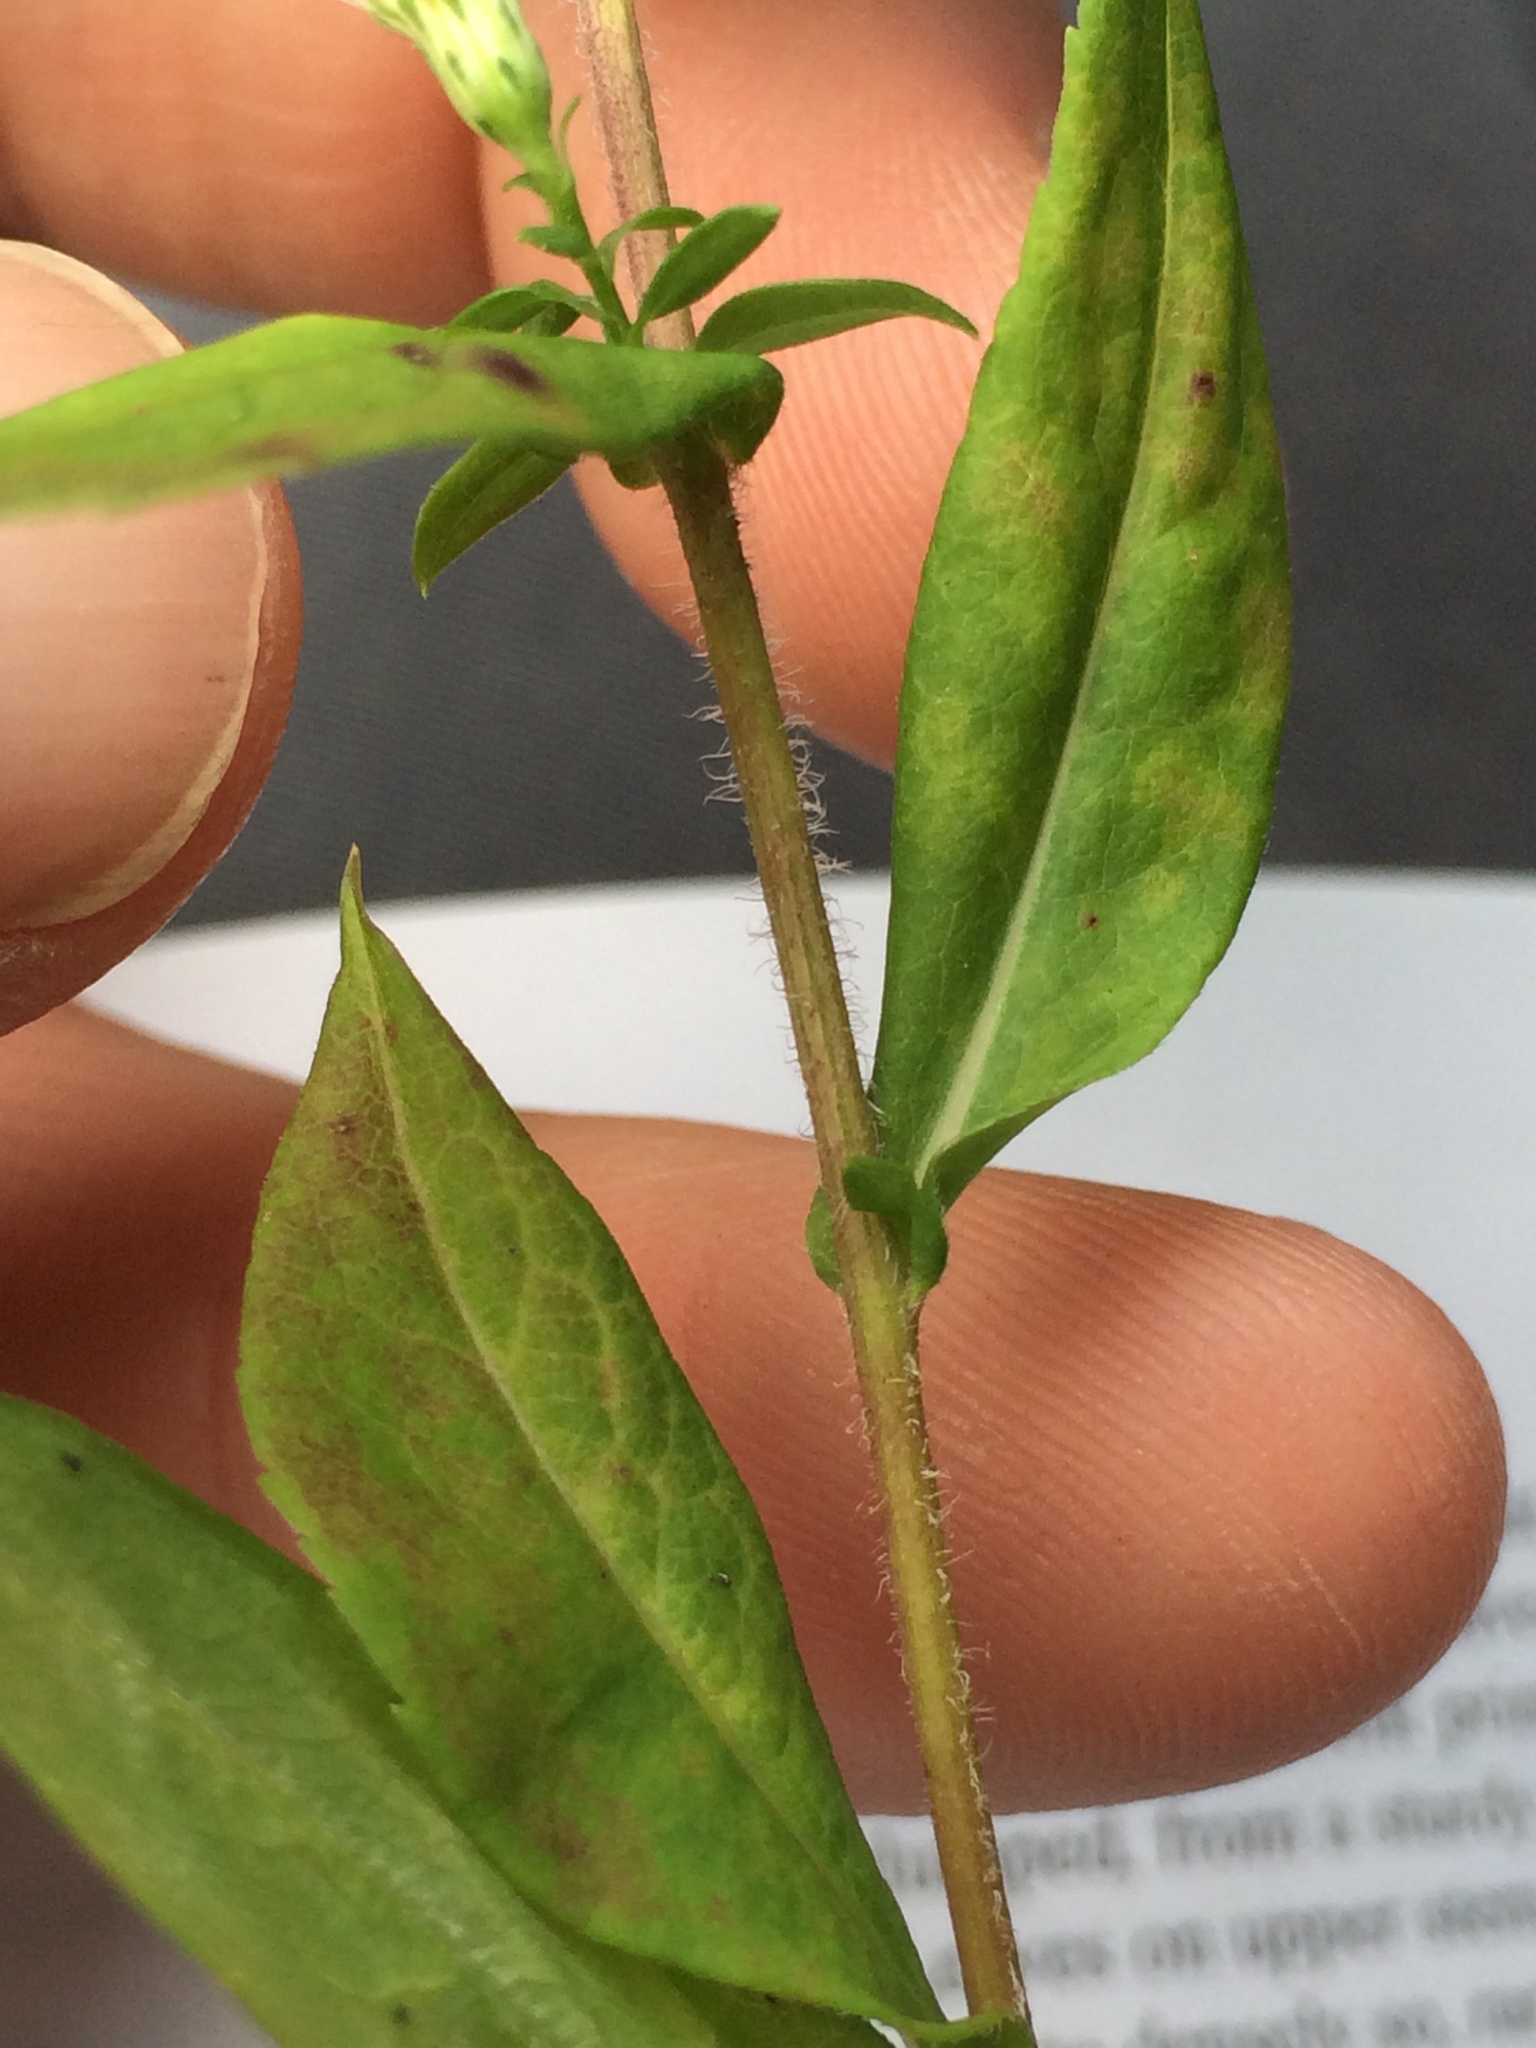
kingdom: Plantae
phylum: Tracheophyta
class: Magnoliopsida
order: Asterales
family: Asteraceae
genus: Symphyotrichum
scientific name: Symphyotrichum lateriflorum
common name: Calico aster
